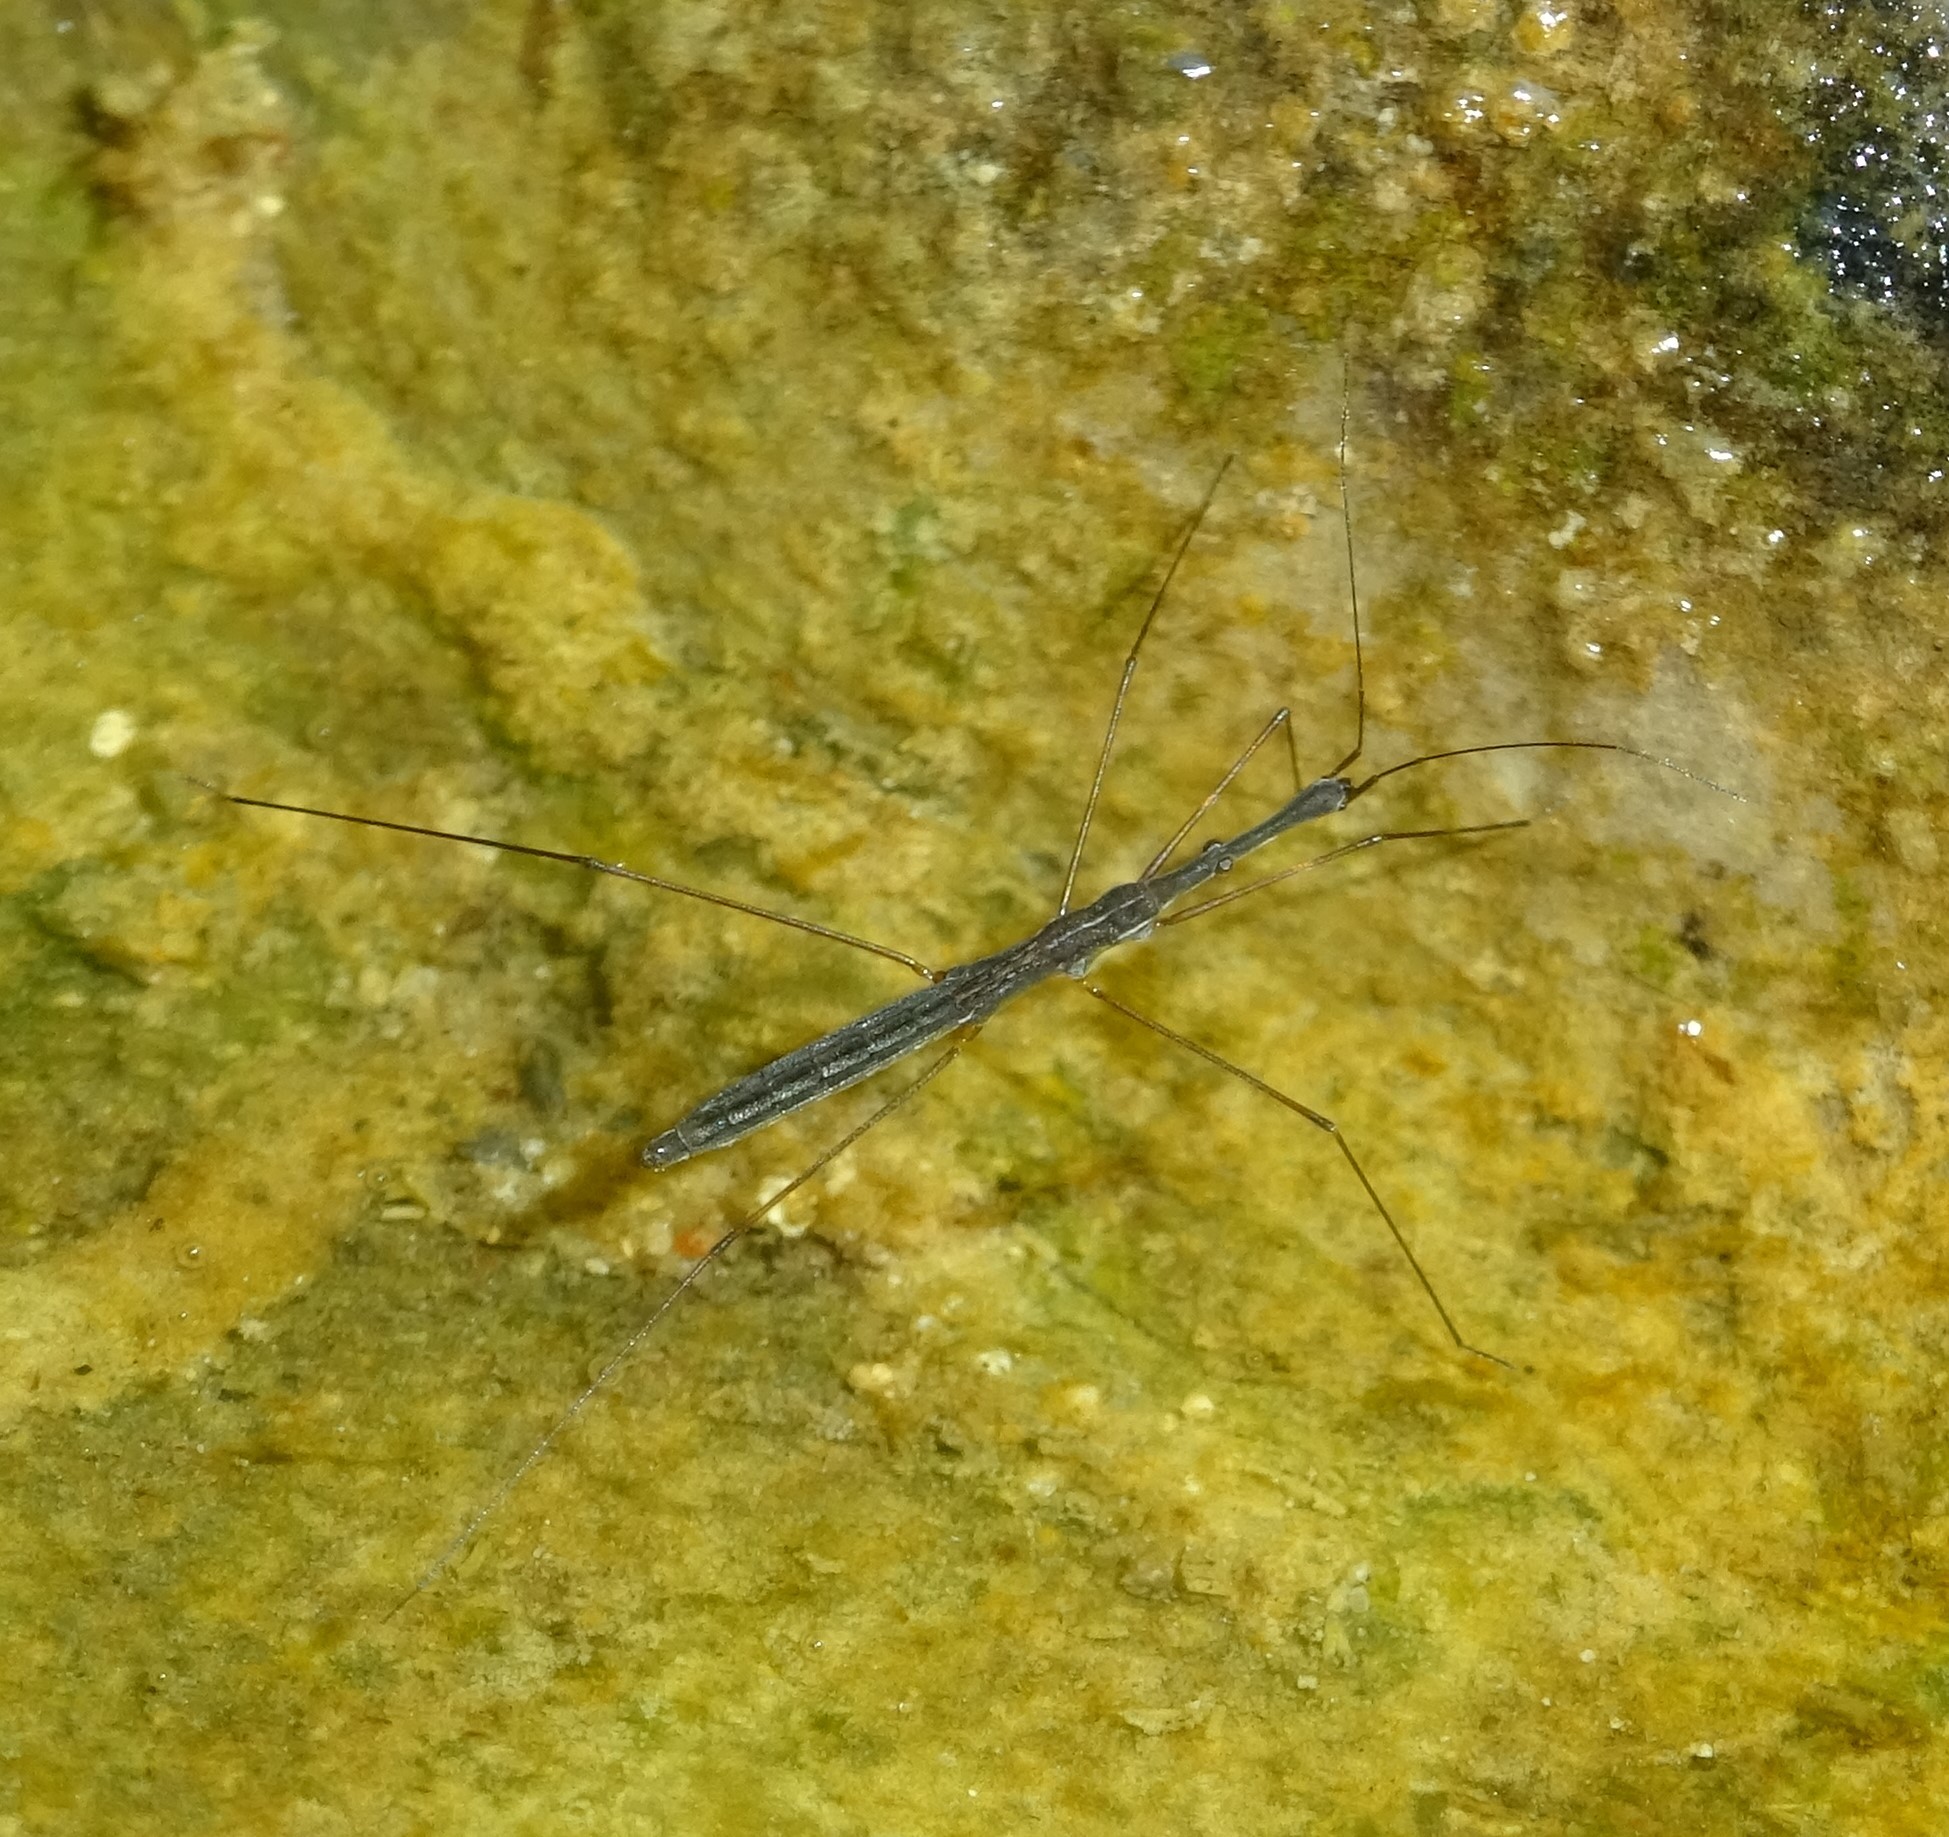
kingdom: Animalia
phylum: Arthropoda
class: Insecta
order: Hemiptera
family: Hydrometridae
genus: Hydrometra
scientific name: Hydrometra stagnorum
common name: Water measurer
